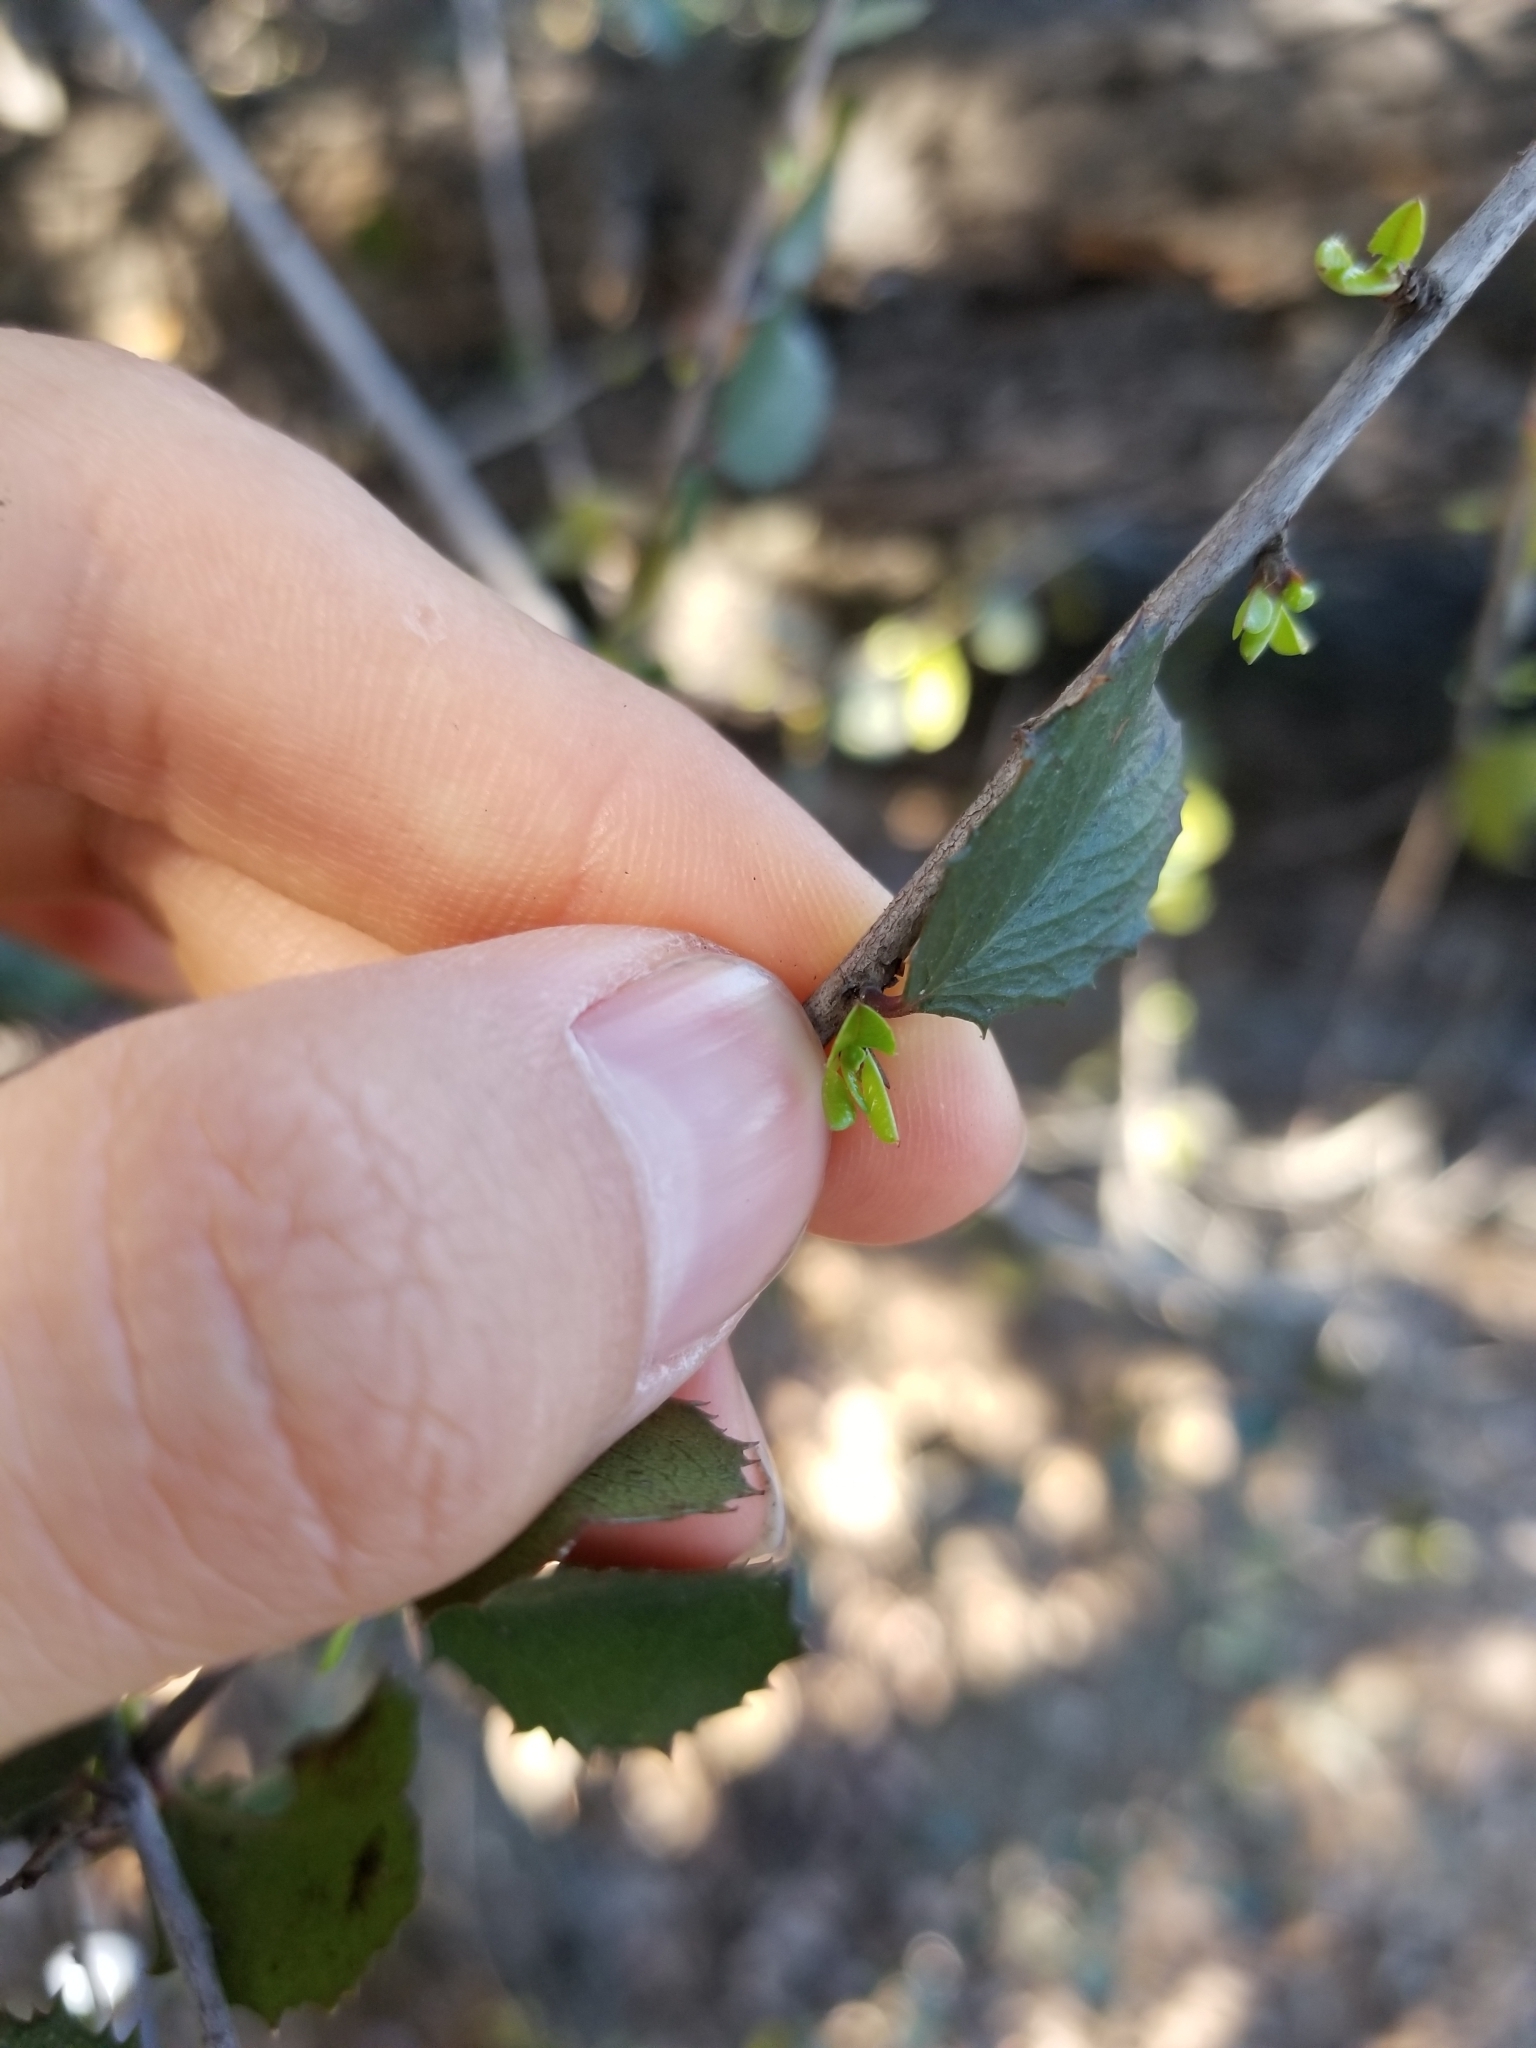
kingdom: Plantae
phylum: Tracheophyta
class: Magnoliopsida
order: Rosales
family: Rhamnaceae
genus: Endotropis
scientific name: Endotropis crocea
